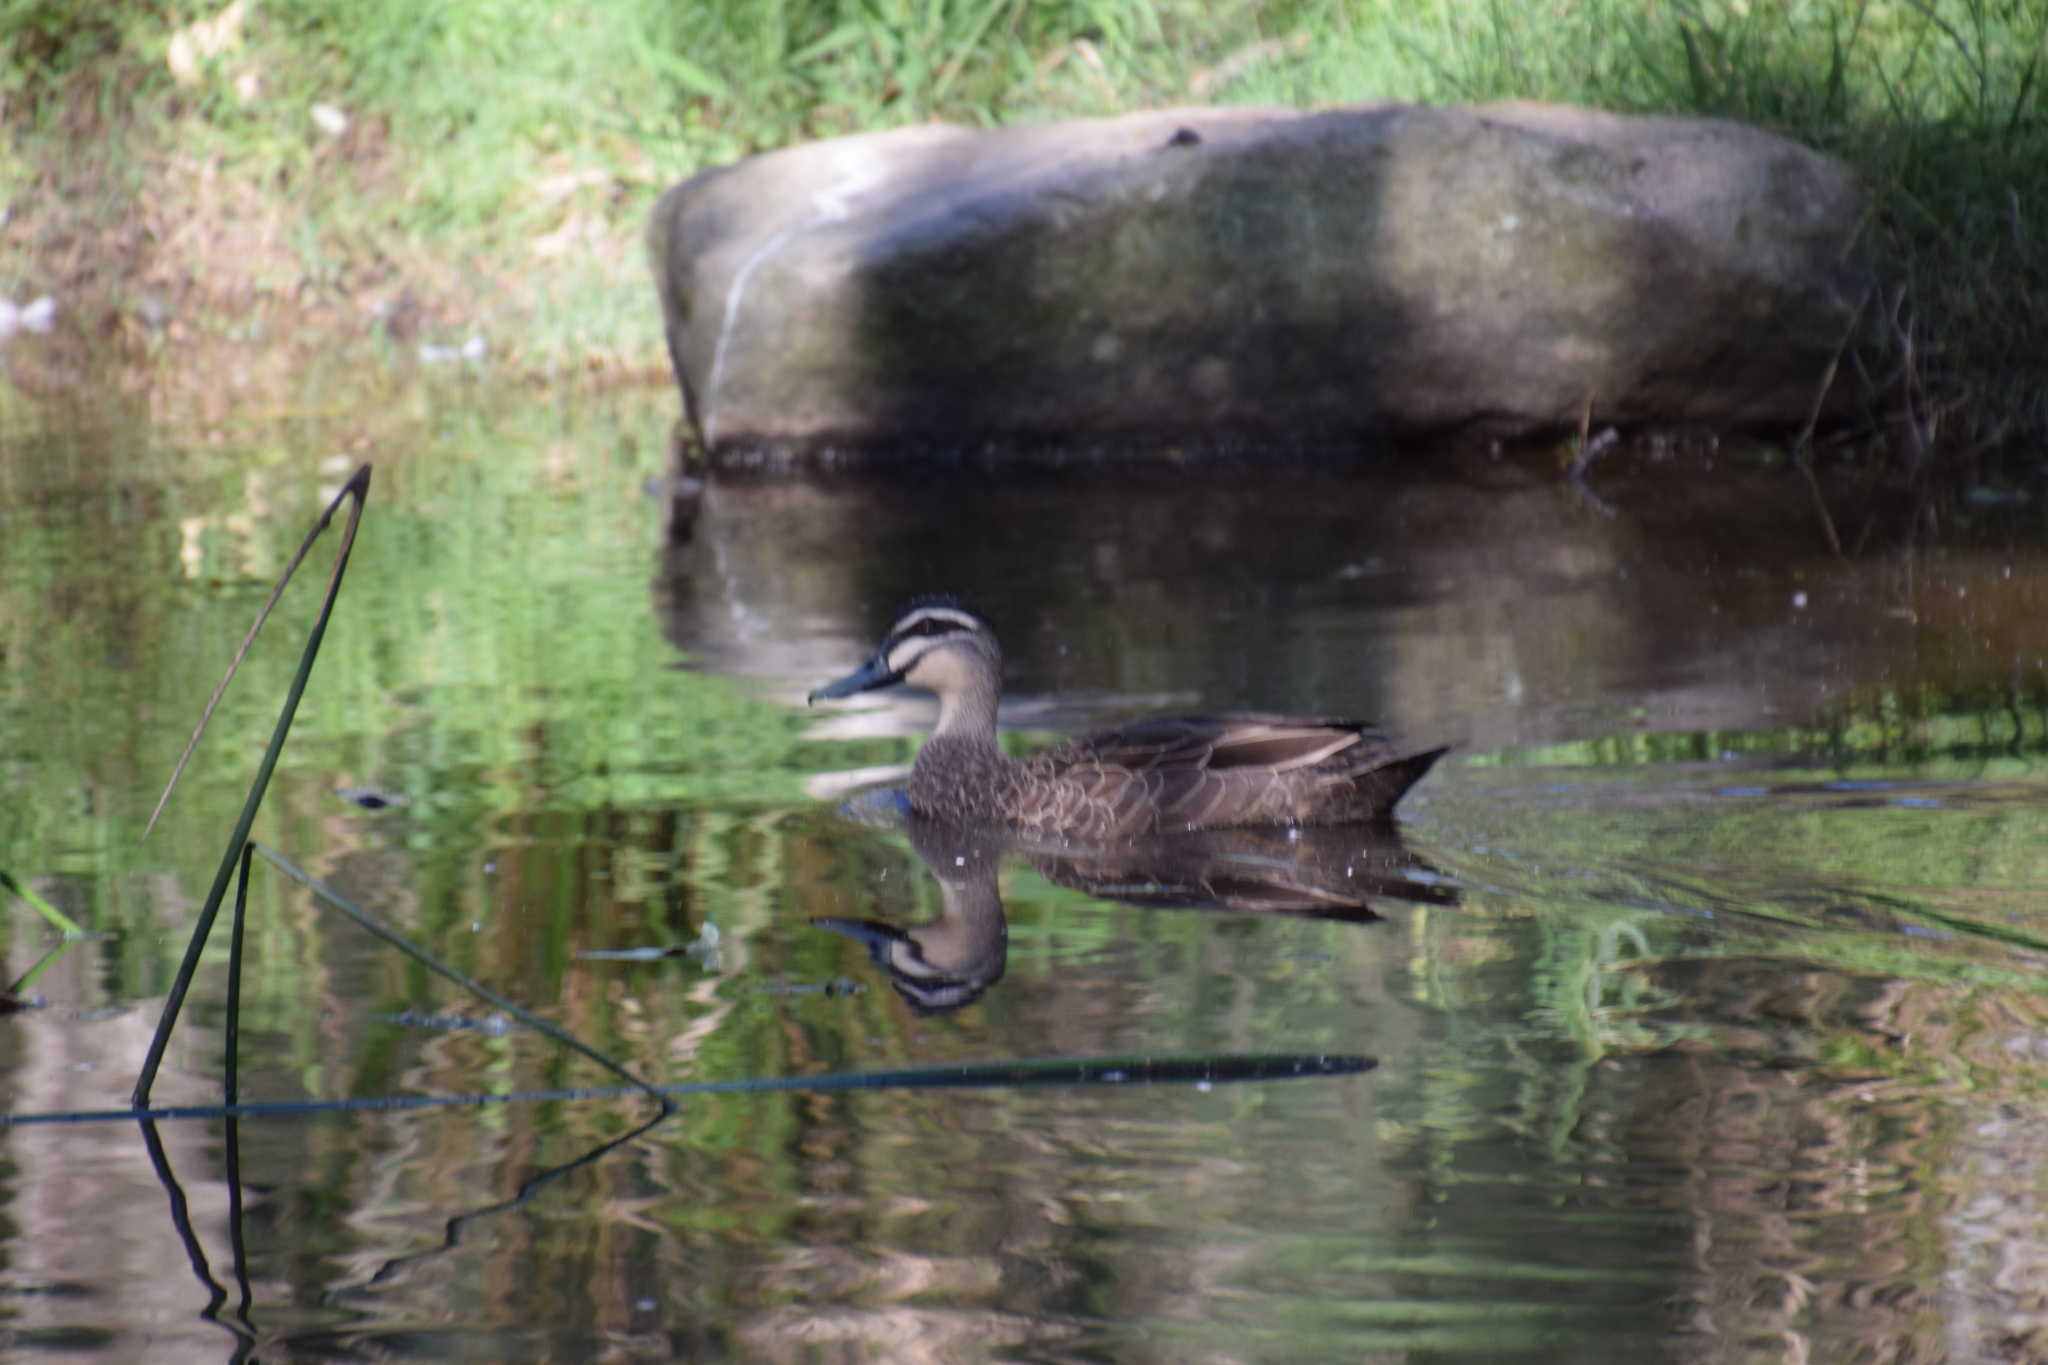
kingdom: Animalia
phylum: Chordata
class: Aves
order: Anseriformes
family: Anatidae
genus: Anas
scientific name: Anas superciliosa
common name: Pacific black duck
